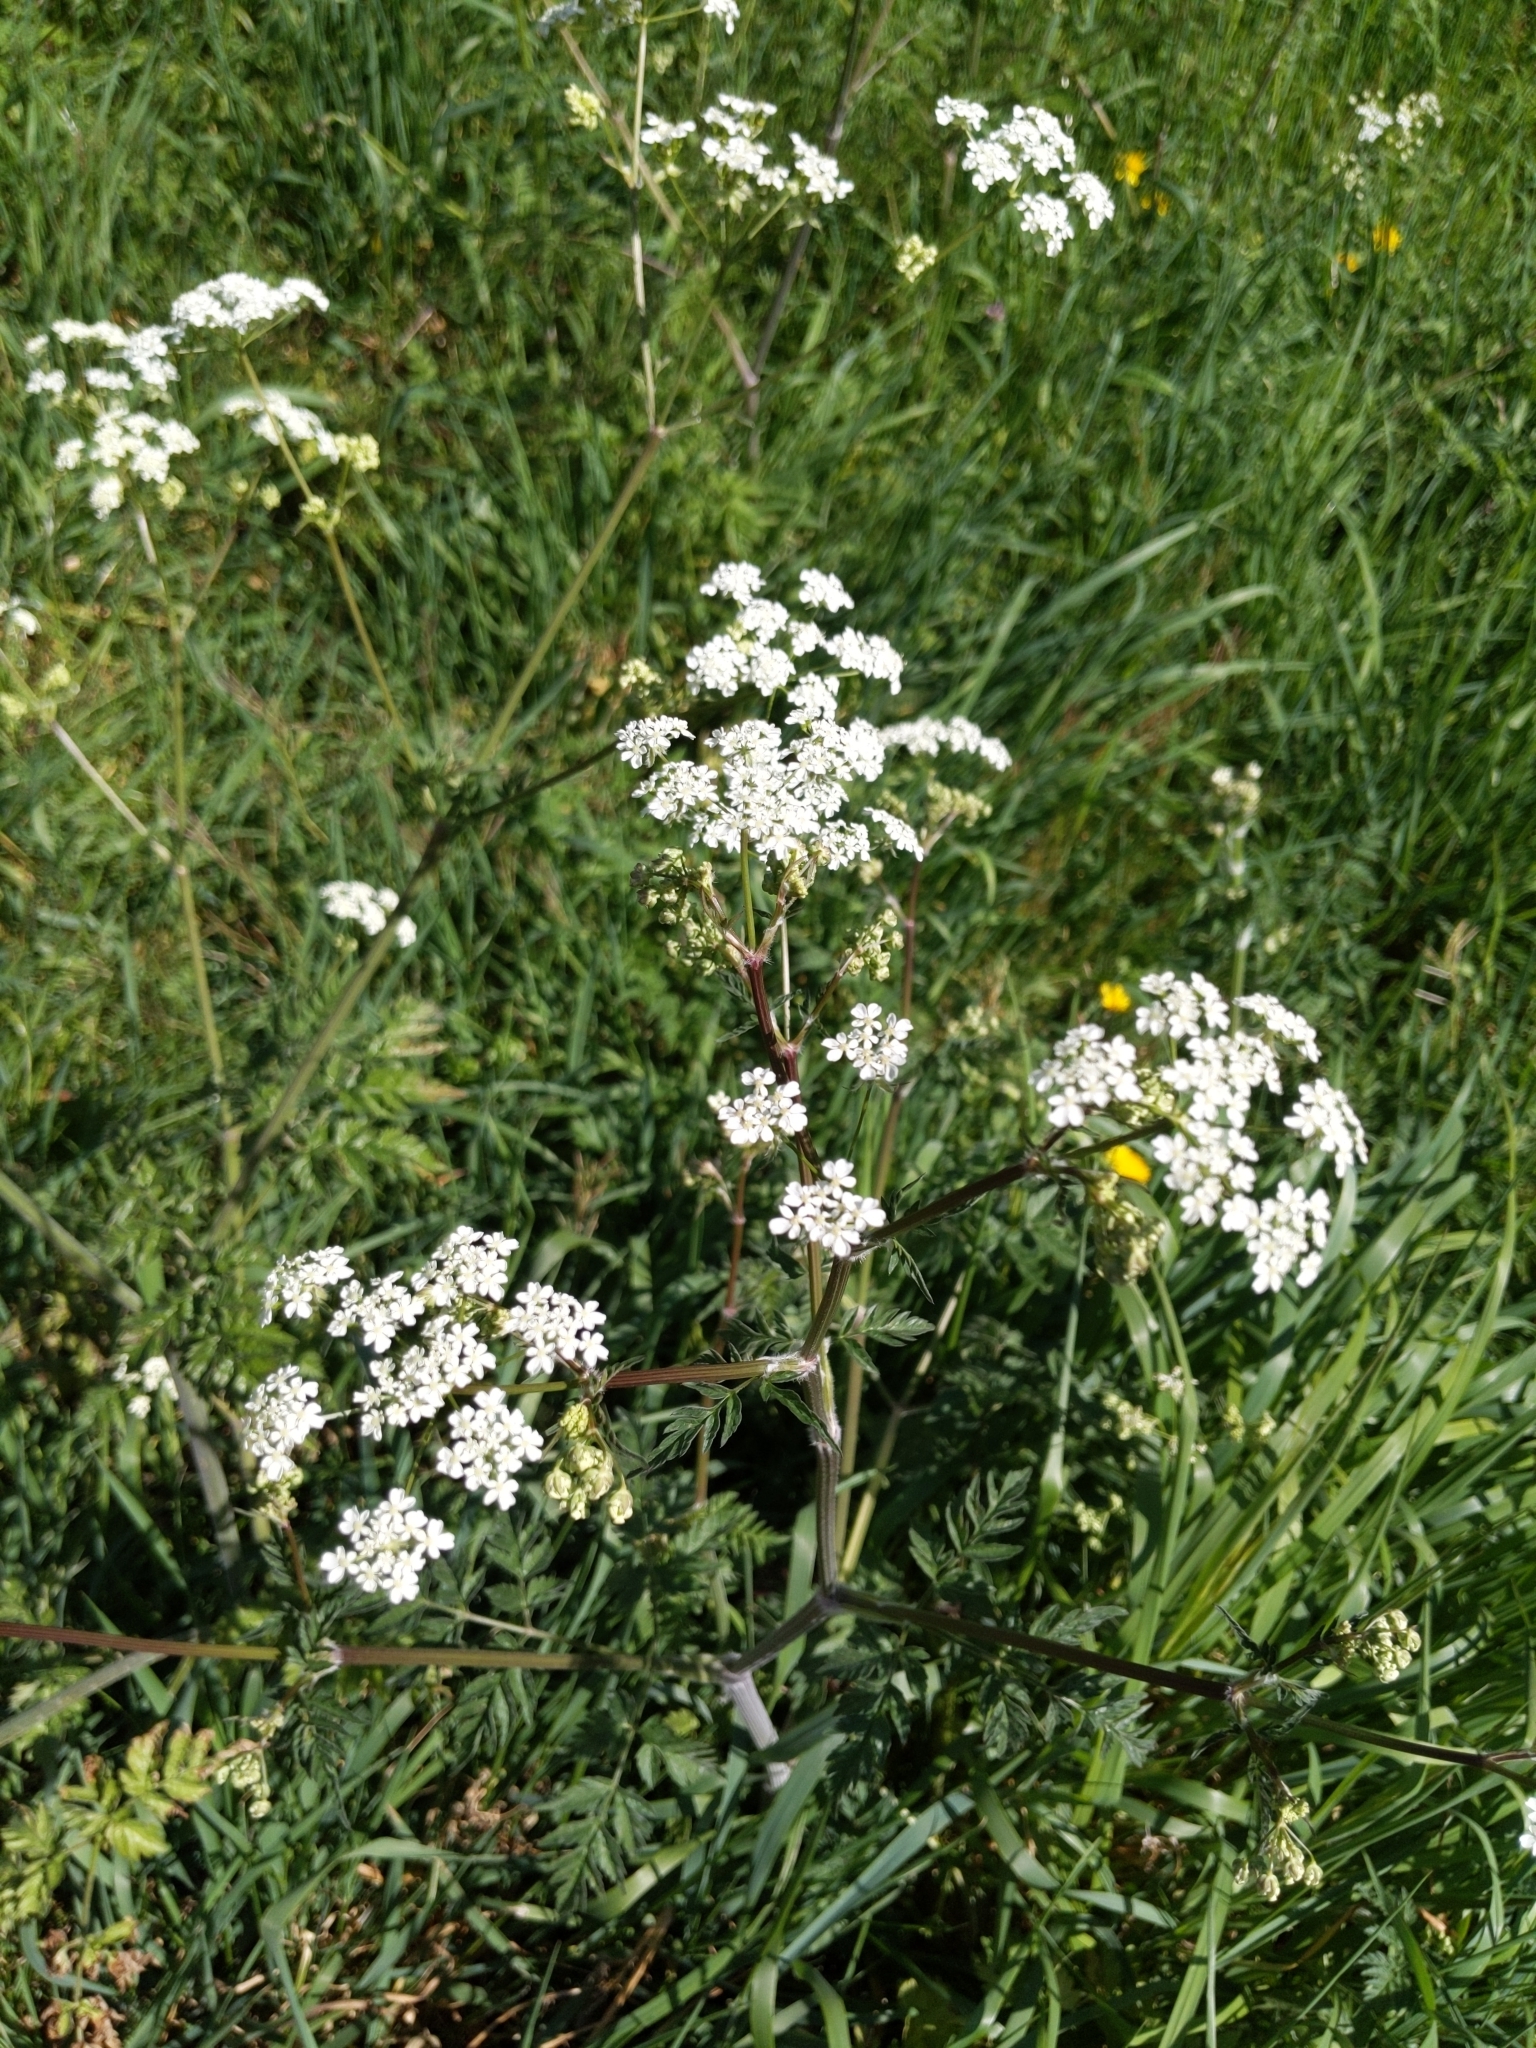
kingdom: Plantae
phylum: Tracheophyta
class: Magnoliopsida
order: Apiales
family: Apiaceae
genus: Anthriscus
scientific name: Anthriscus sylvestris
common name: Cow parsley
